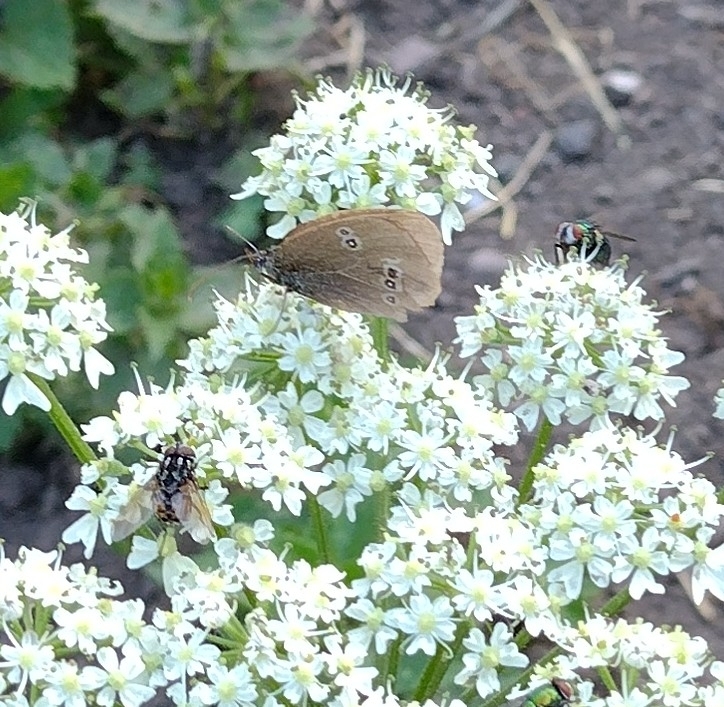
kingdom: Animalia
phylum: Arthropoda
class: Insecta
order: Lepidoptera
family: Nymphalidae
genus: Aphantopus
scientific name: Aphantopus hyperantus
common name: Ringlet
